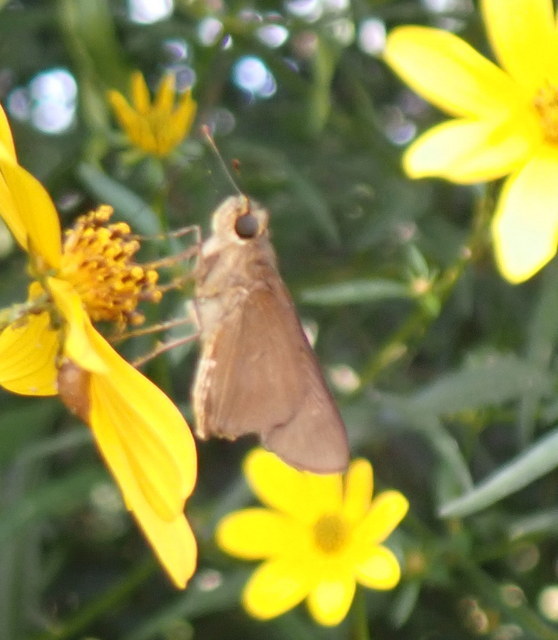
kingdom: Animalia
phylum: Arthropoda
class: Insecta
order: Lepidoptera
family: Hesperiidae
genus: Panoquina
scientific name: Panoquina ocola
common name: Ocola skipper
